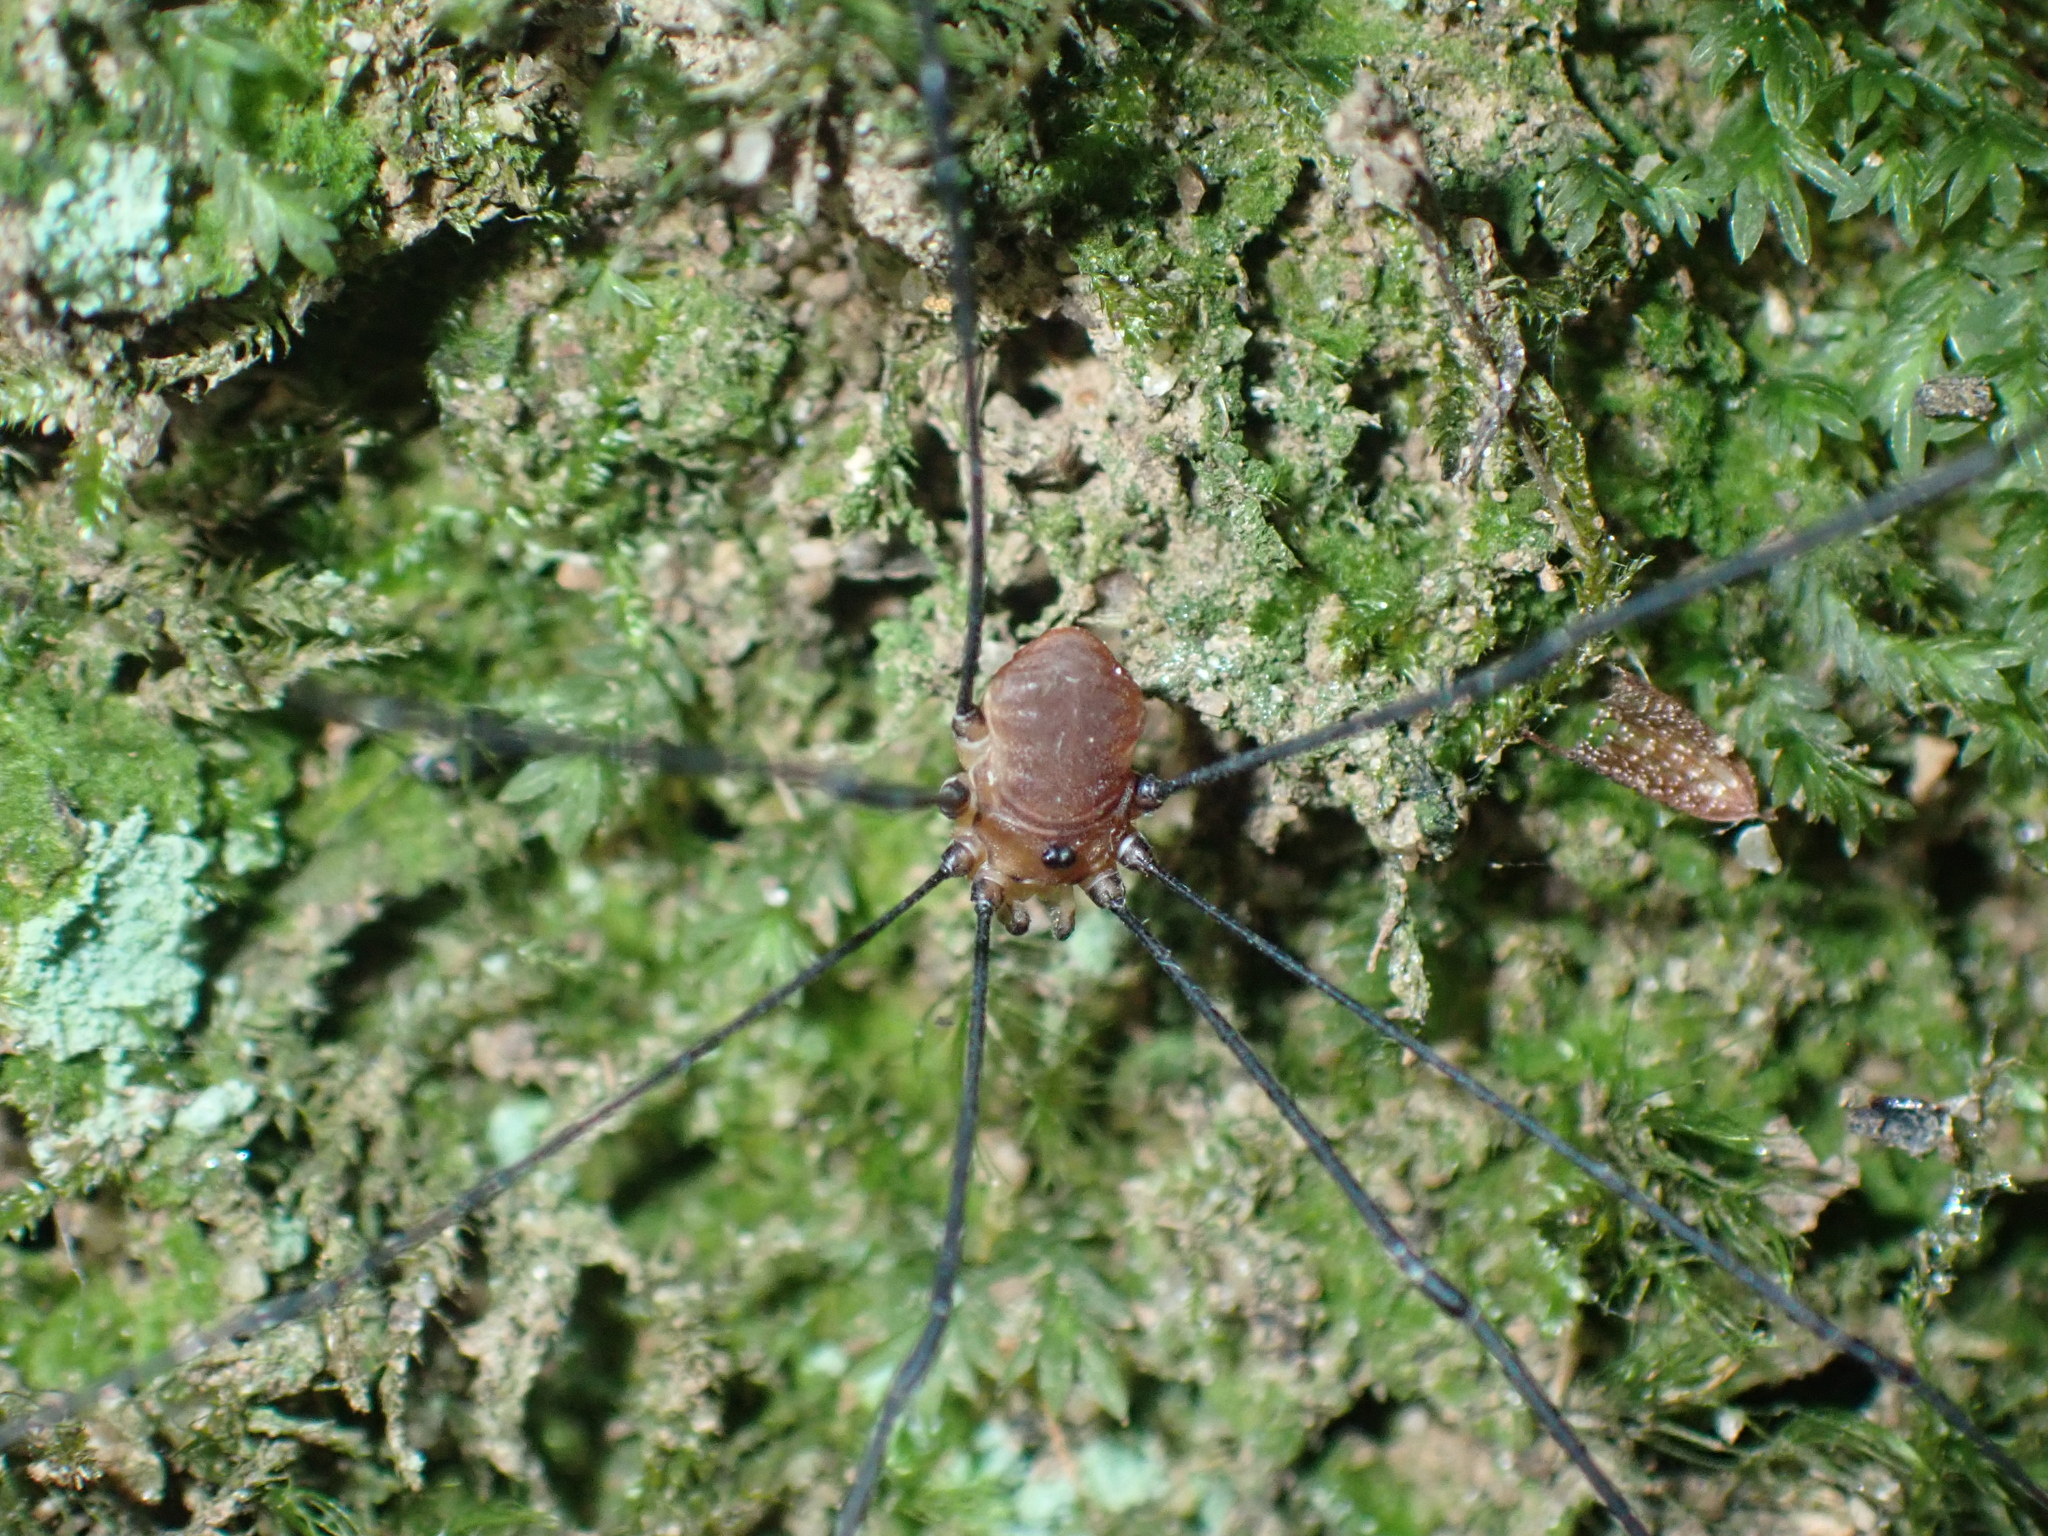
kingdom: Animalia
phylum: Arthropoda
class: Arachnida
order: Opiliones
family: Sclerosomatidae
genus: Leiobunum
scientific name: Leiobunum rotundum
